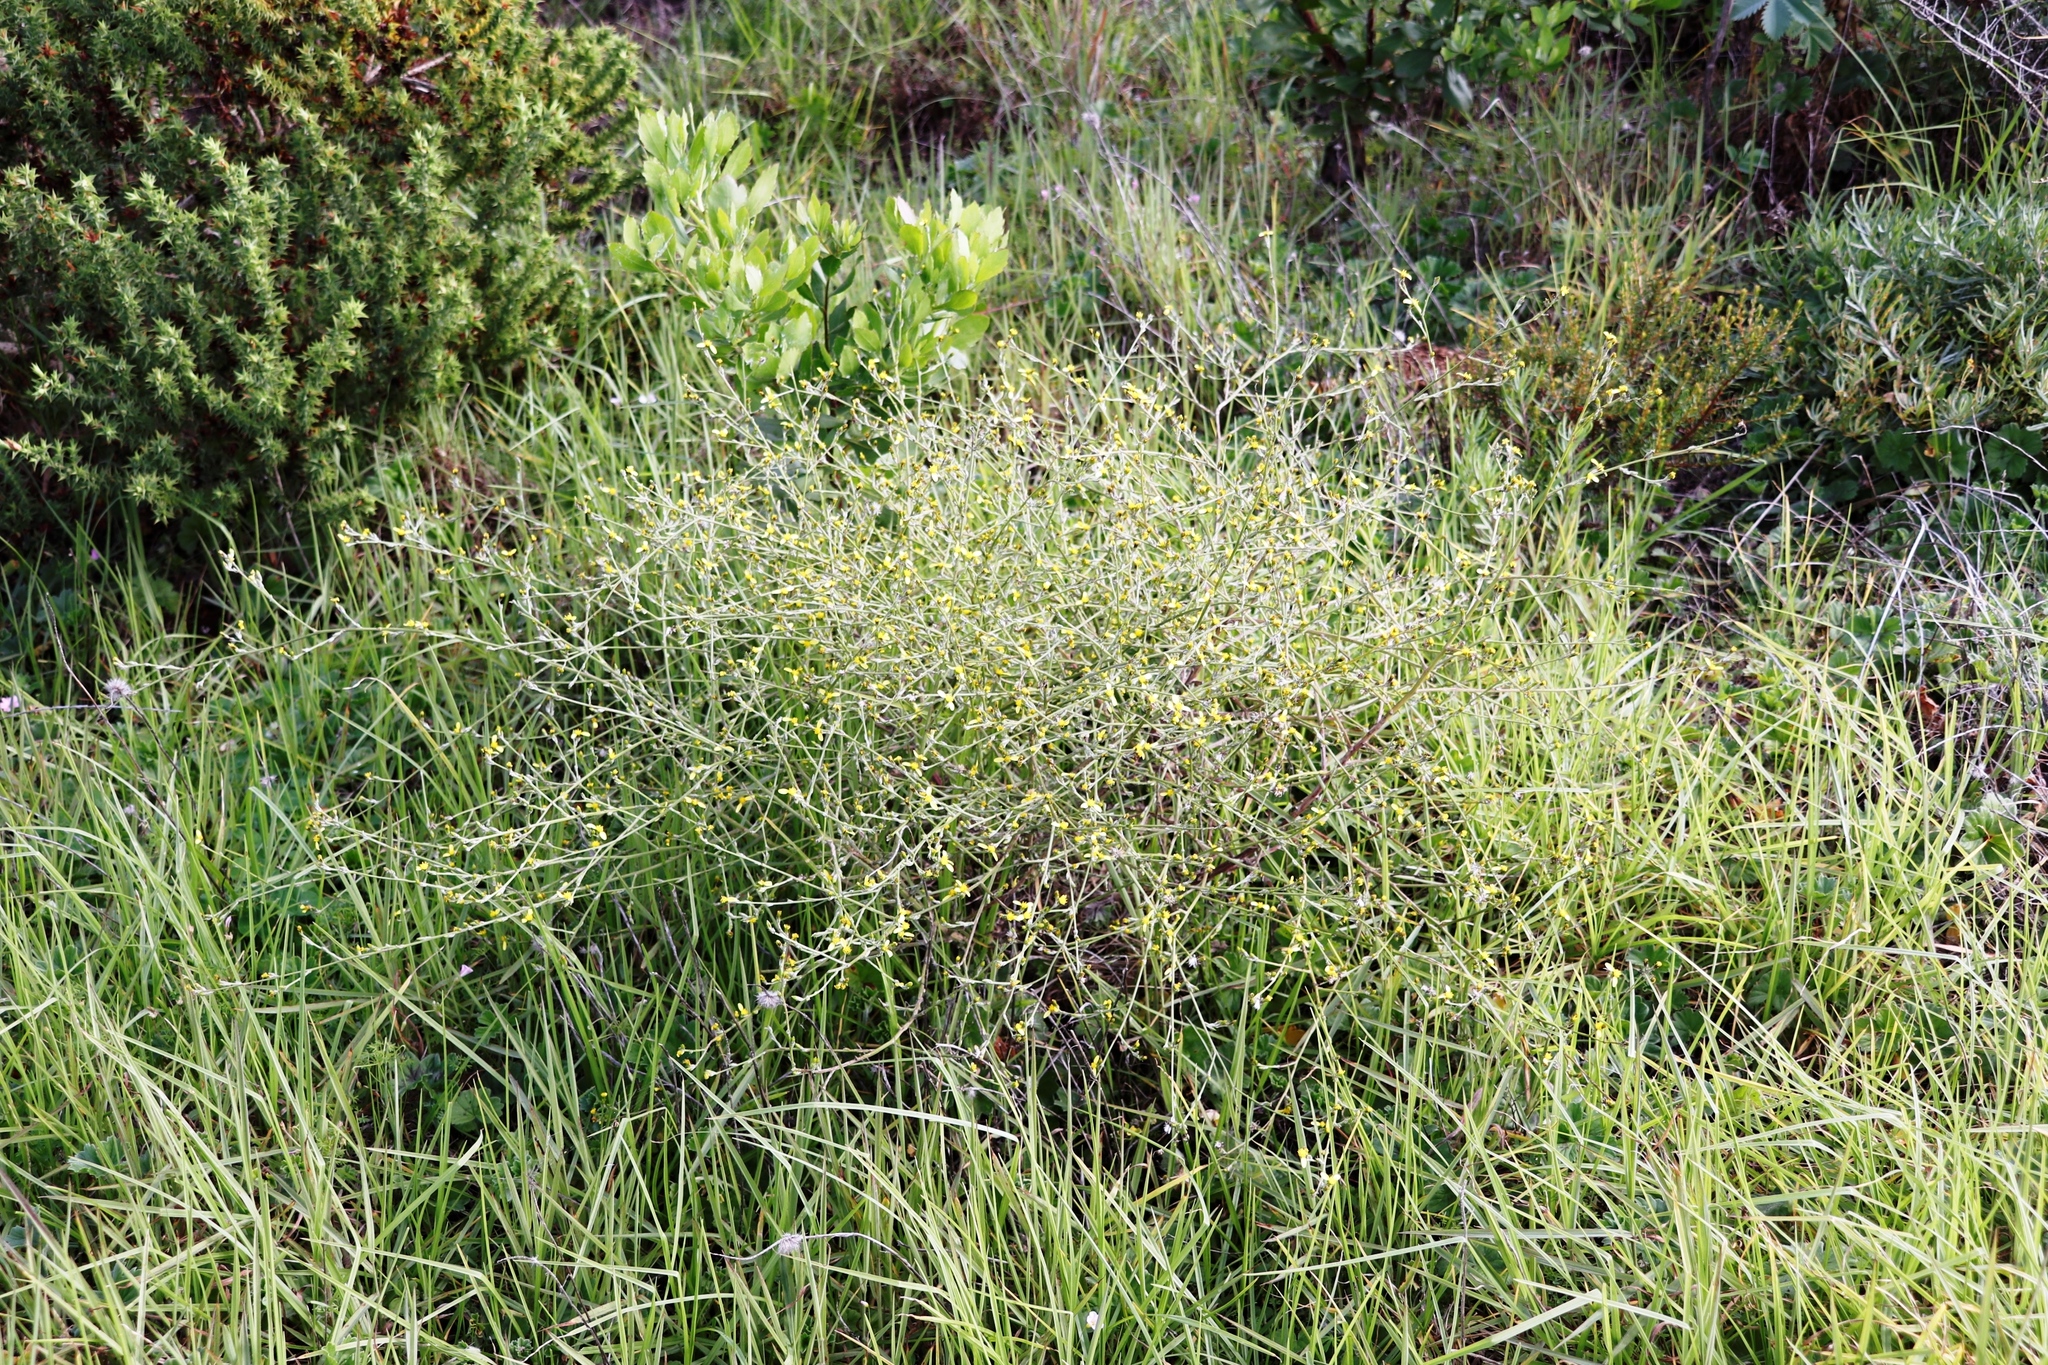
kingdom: Plantae
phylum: Tracheophyta
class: Magnoliopsida
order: Asterales
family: Asteraceae
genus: Senecio
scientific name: Senecio pubigerus
